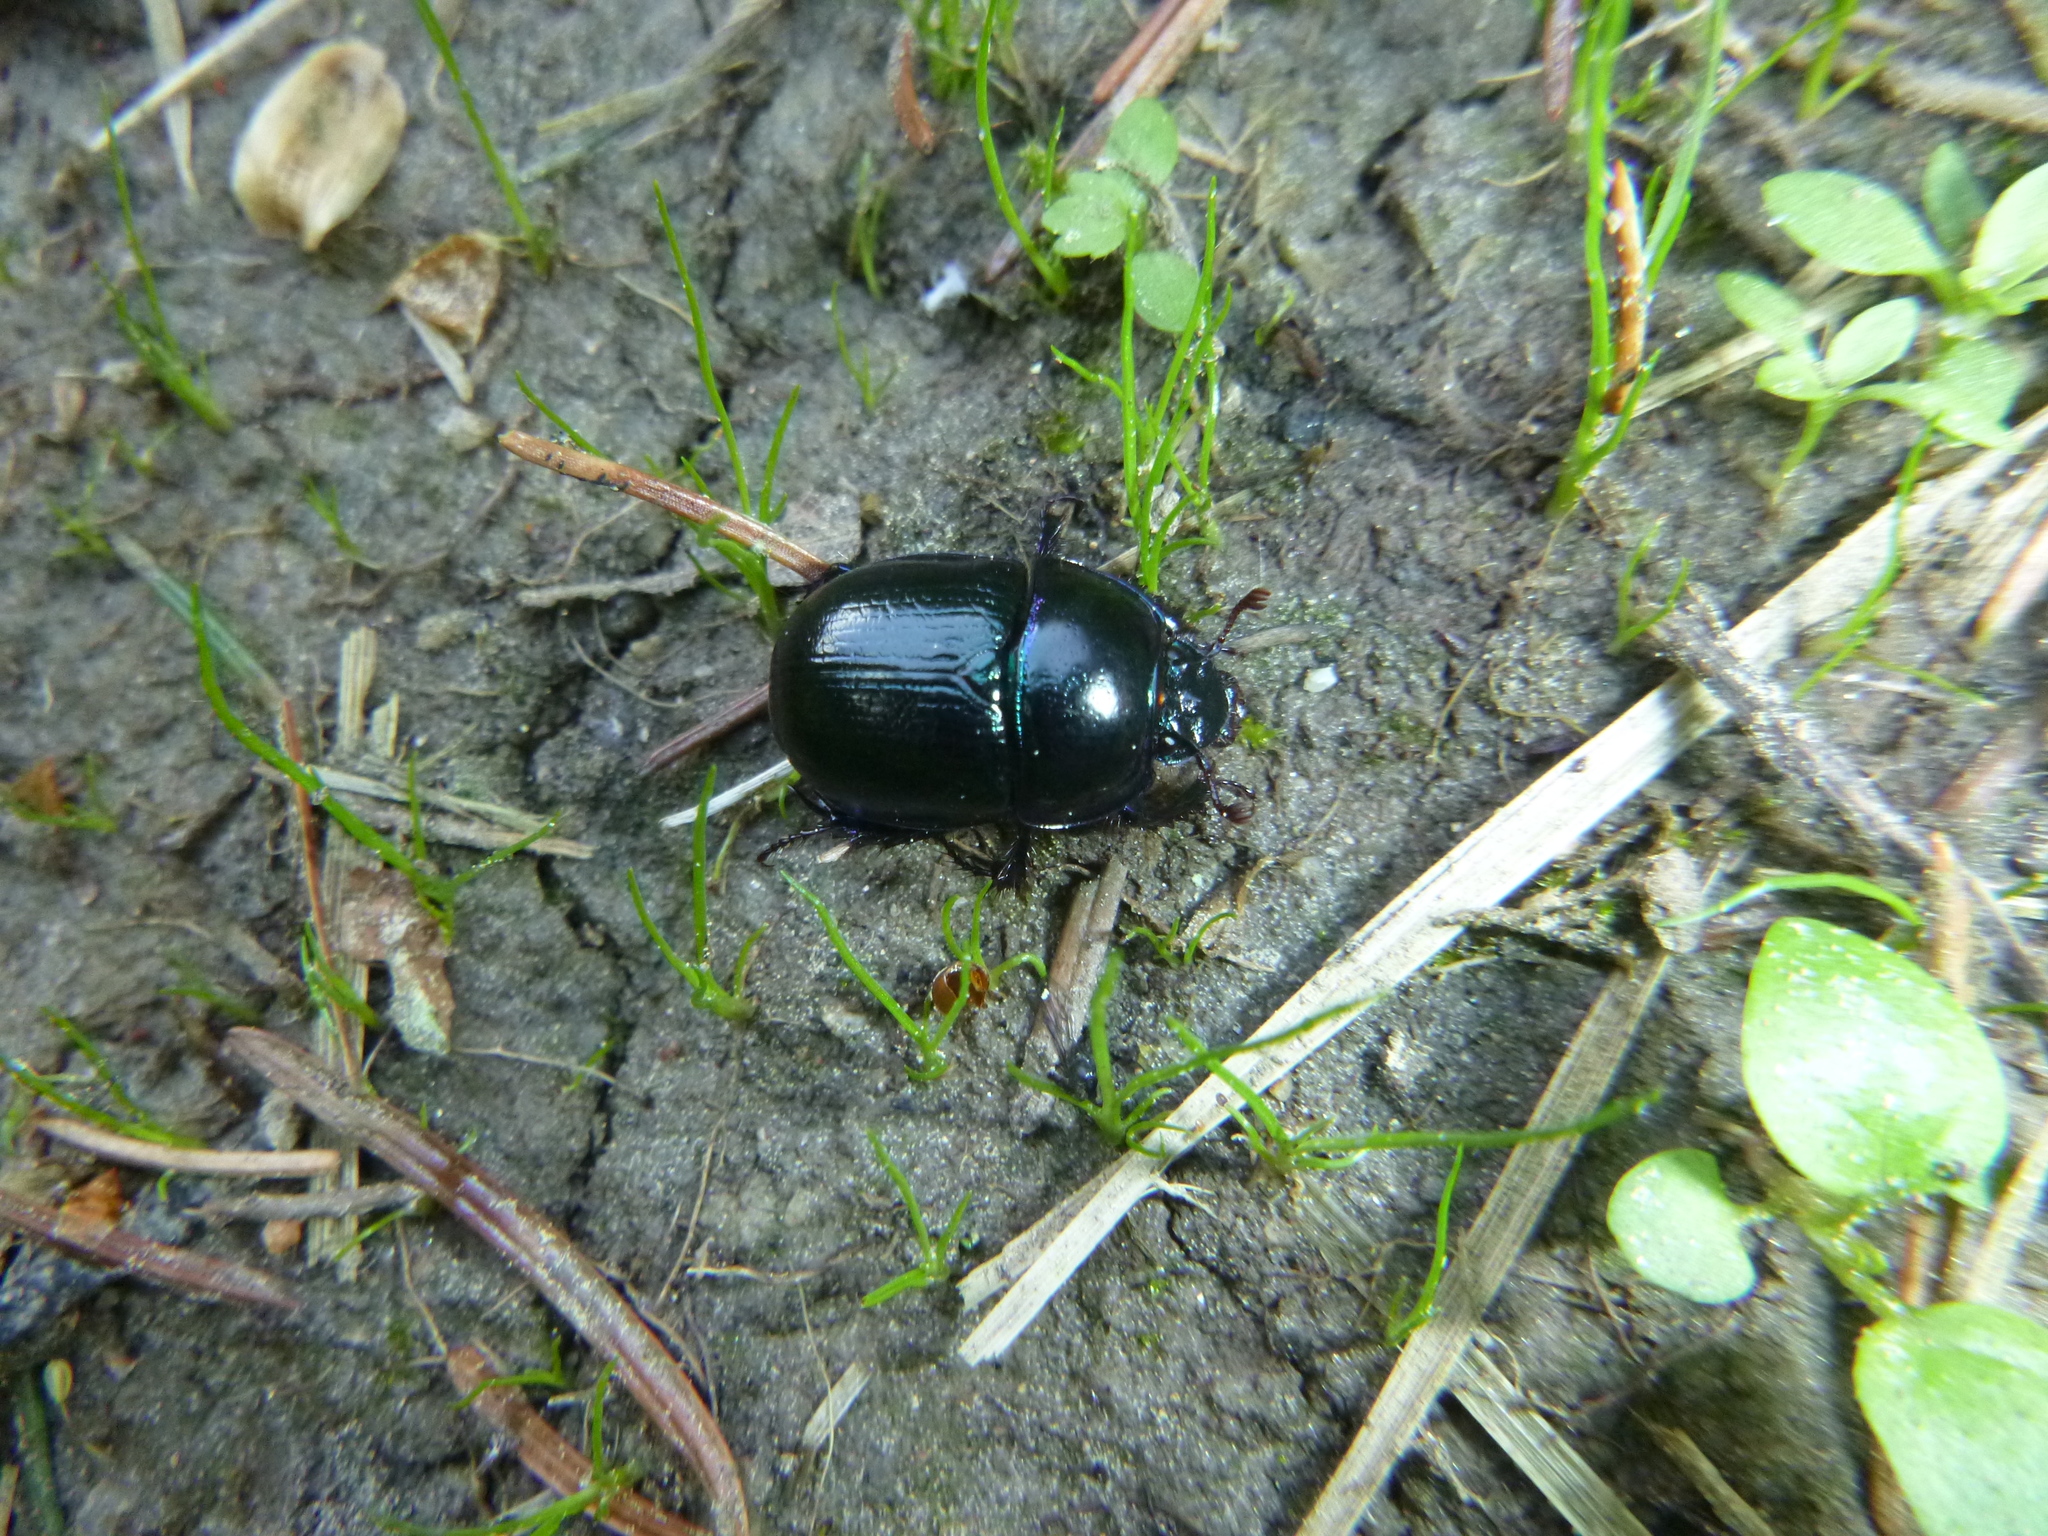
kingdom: Animalia
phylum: Arthropoda
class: Insecta
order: Coleoptera
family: Geotrupidae
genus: Anoplotrupes
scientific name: Anoplotrupes stercorosus
